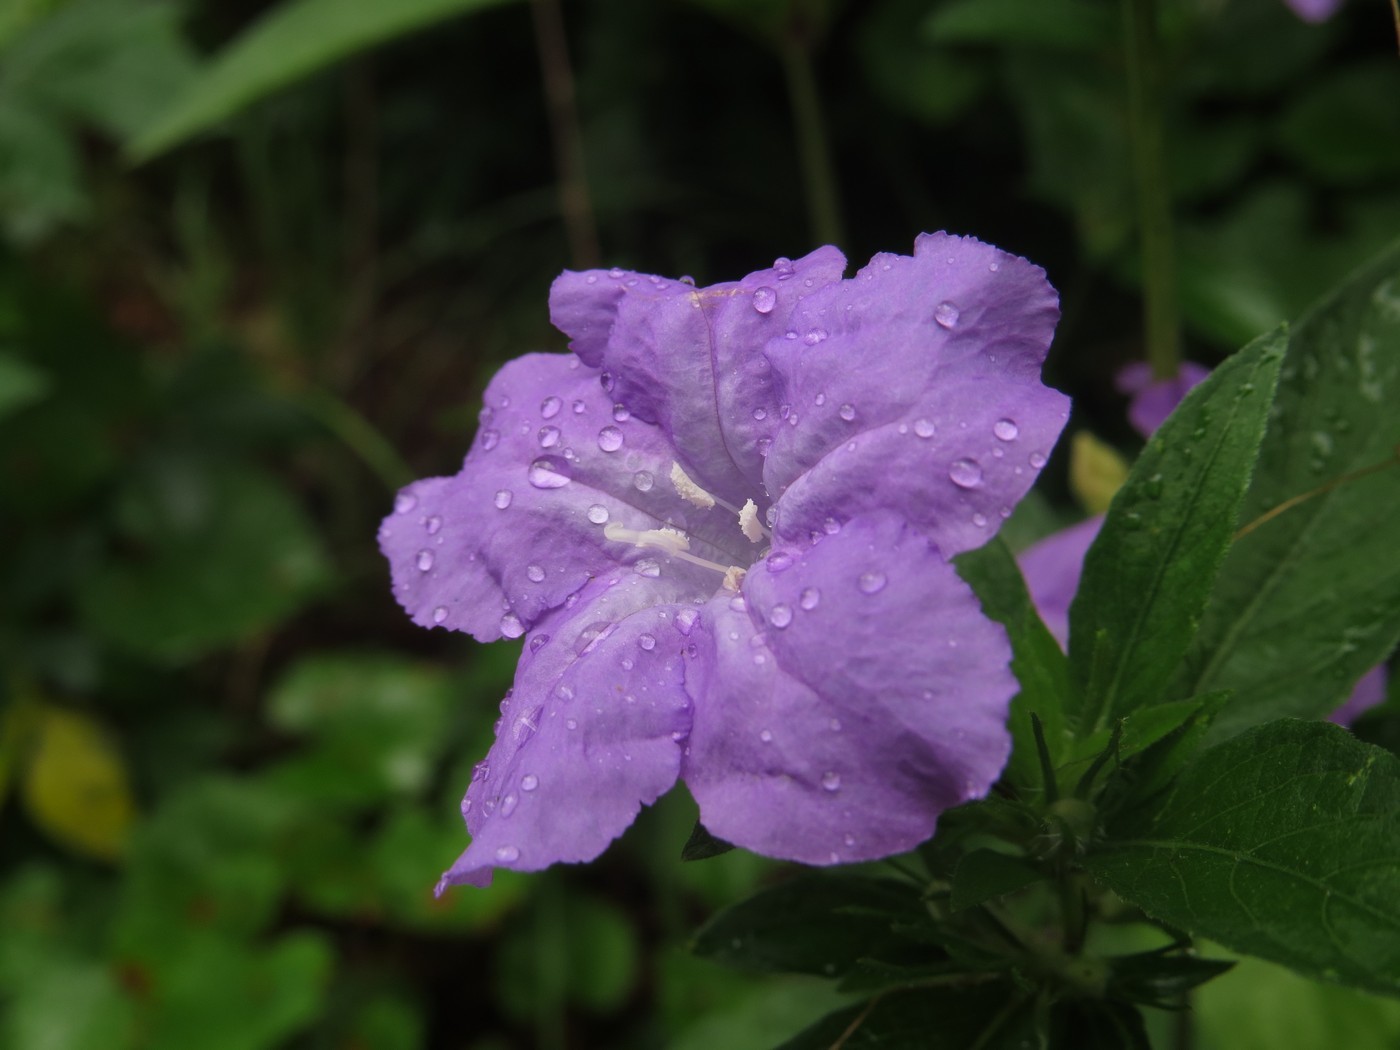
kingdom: Plantae
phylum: Tracheophyta
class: Magnoliopsida
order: Lamiales
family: Acanthaceae
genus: Ruellia
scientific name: Ruellia caroliniensis
